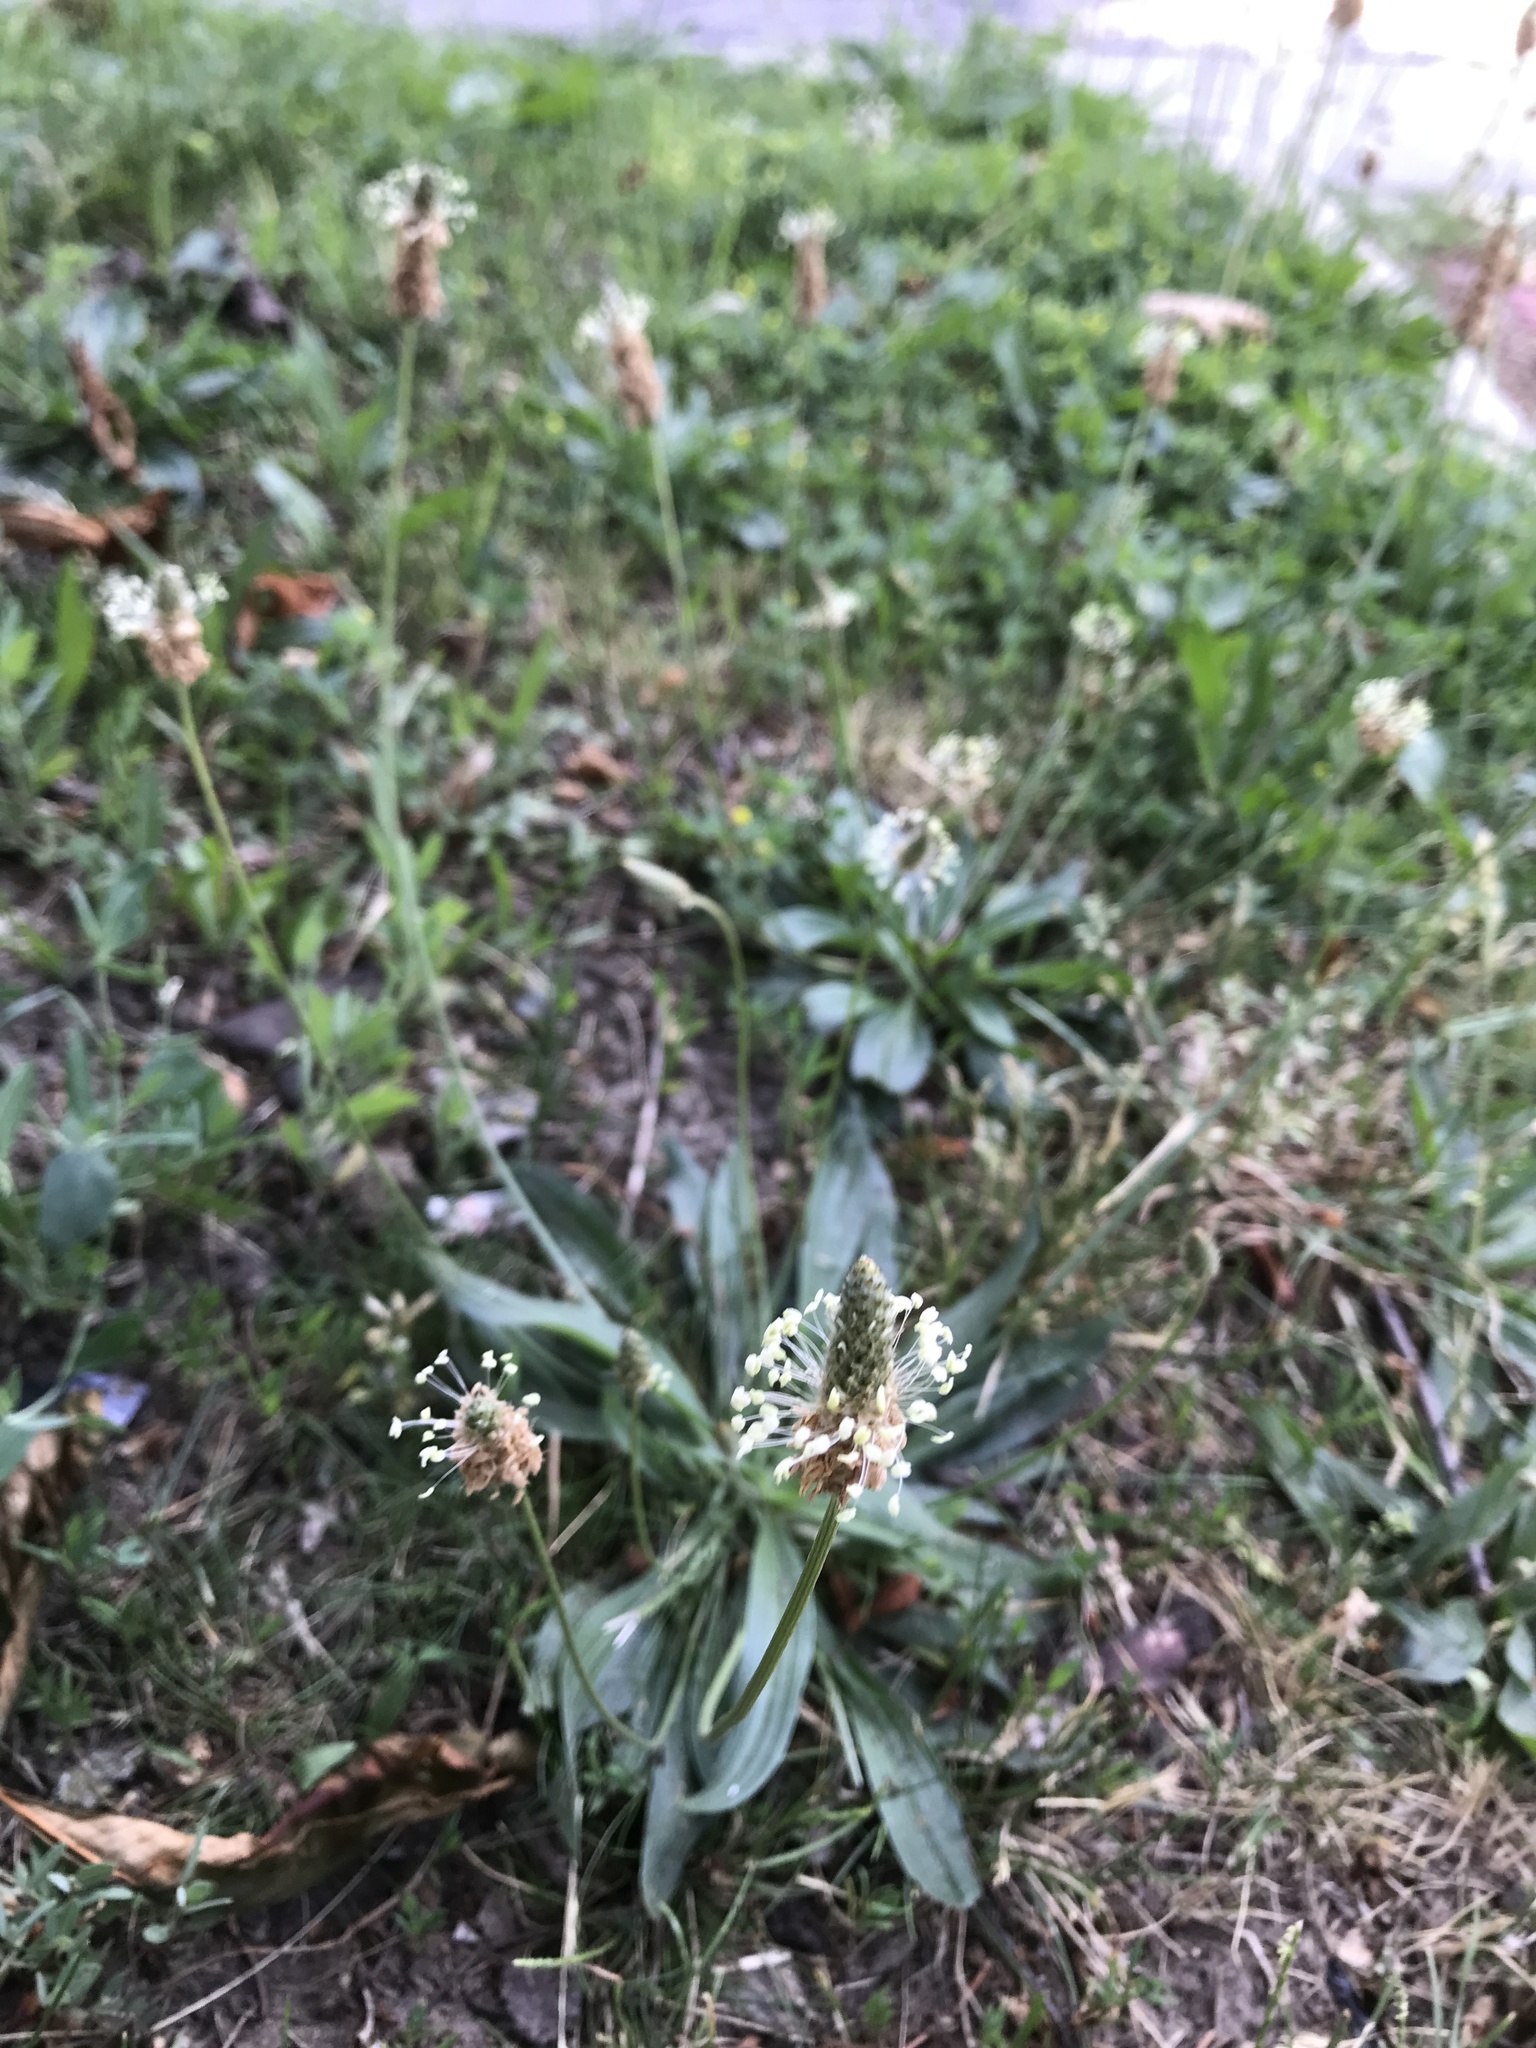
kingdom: Plantae
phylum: Tracheophyta
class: Magnoliopsida
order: Lamiales
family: Plantaginaceae
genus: Plantago
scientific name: Plantago lanceolata
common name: Ribwort plantain
